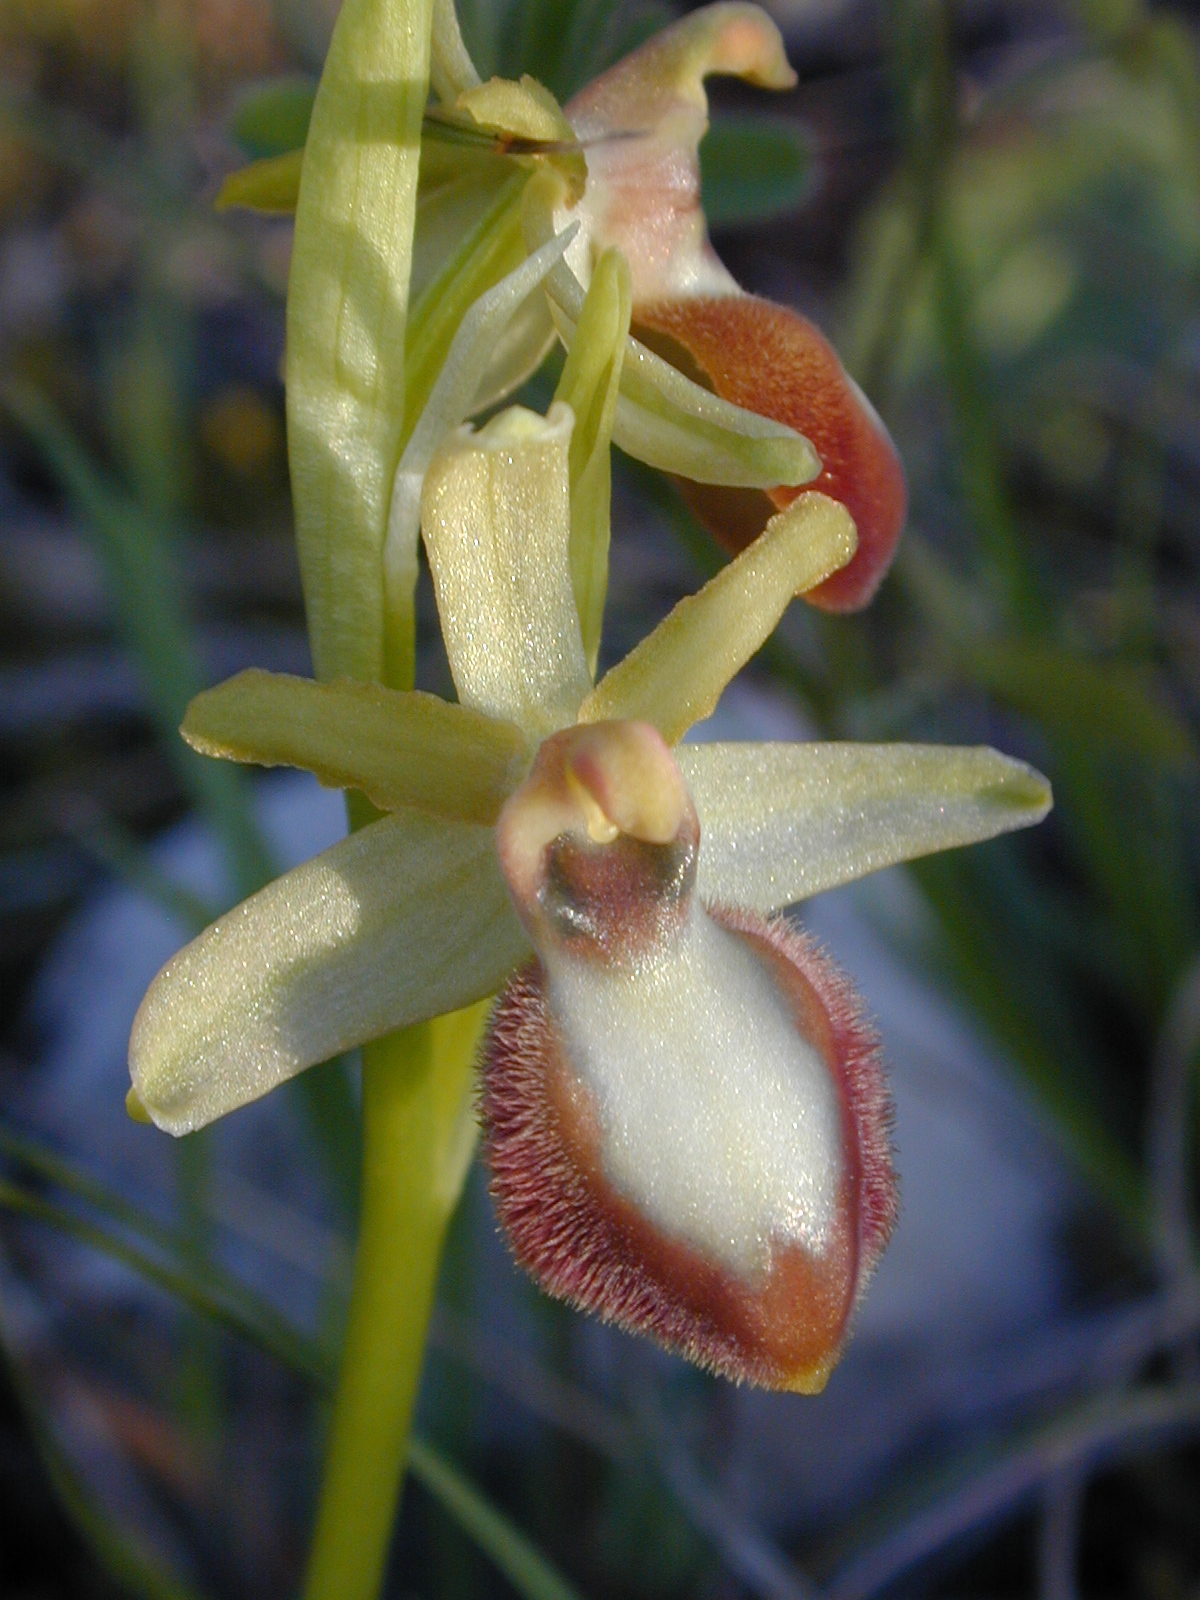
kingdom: Plantae
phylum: Tracheophyta
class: Liliopsida
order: Asparagales
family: Orchidaceae
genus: Ophrys
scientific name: Ophrys sphegodes
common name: Early spider-orchid
